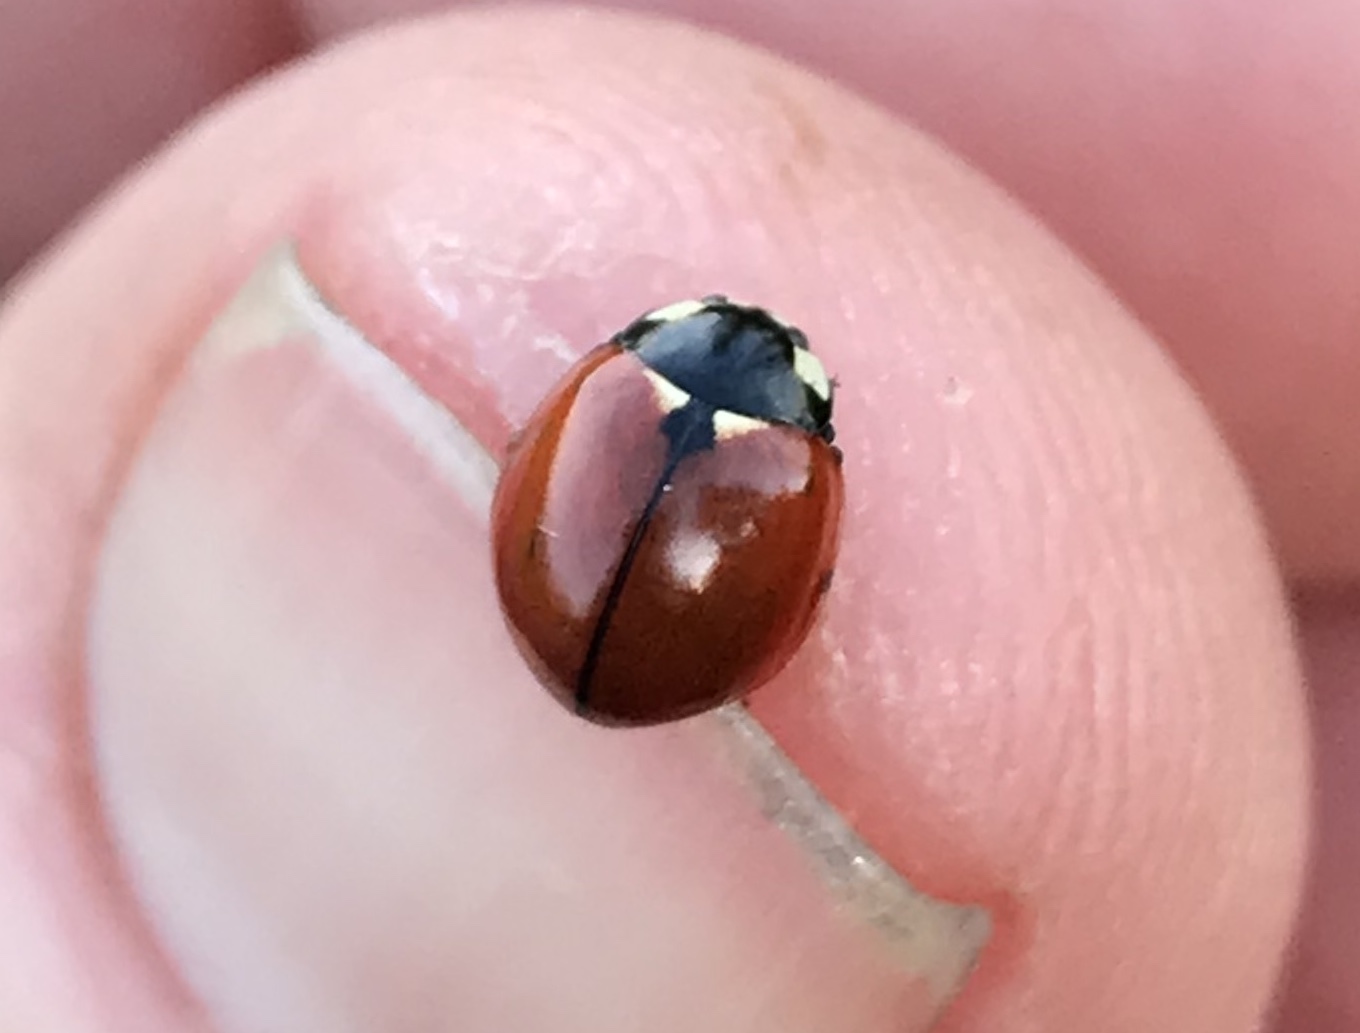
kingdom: Animalia
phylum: Arthropoda
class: Insecta
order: Coleoptera
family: Coccinellidae
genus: Coccinella
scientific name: Coccinella californica
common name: Lady beetle
